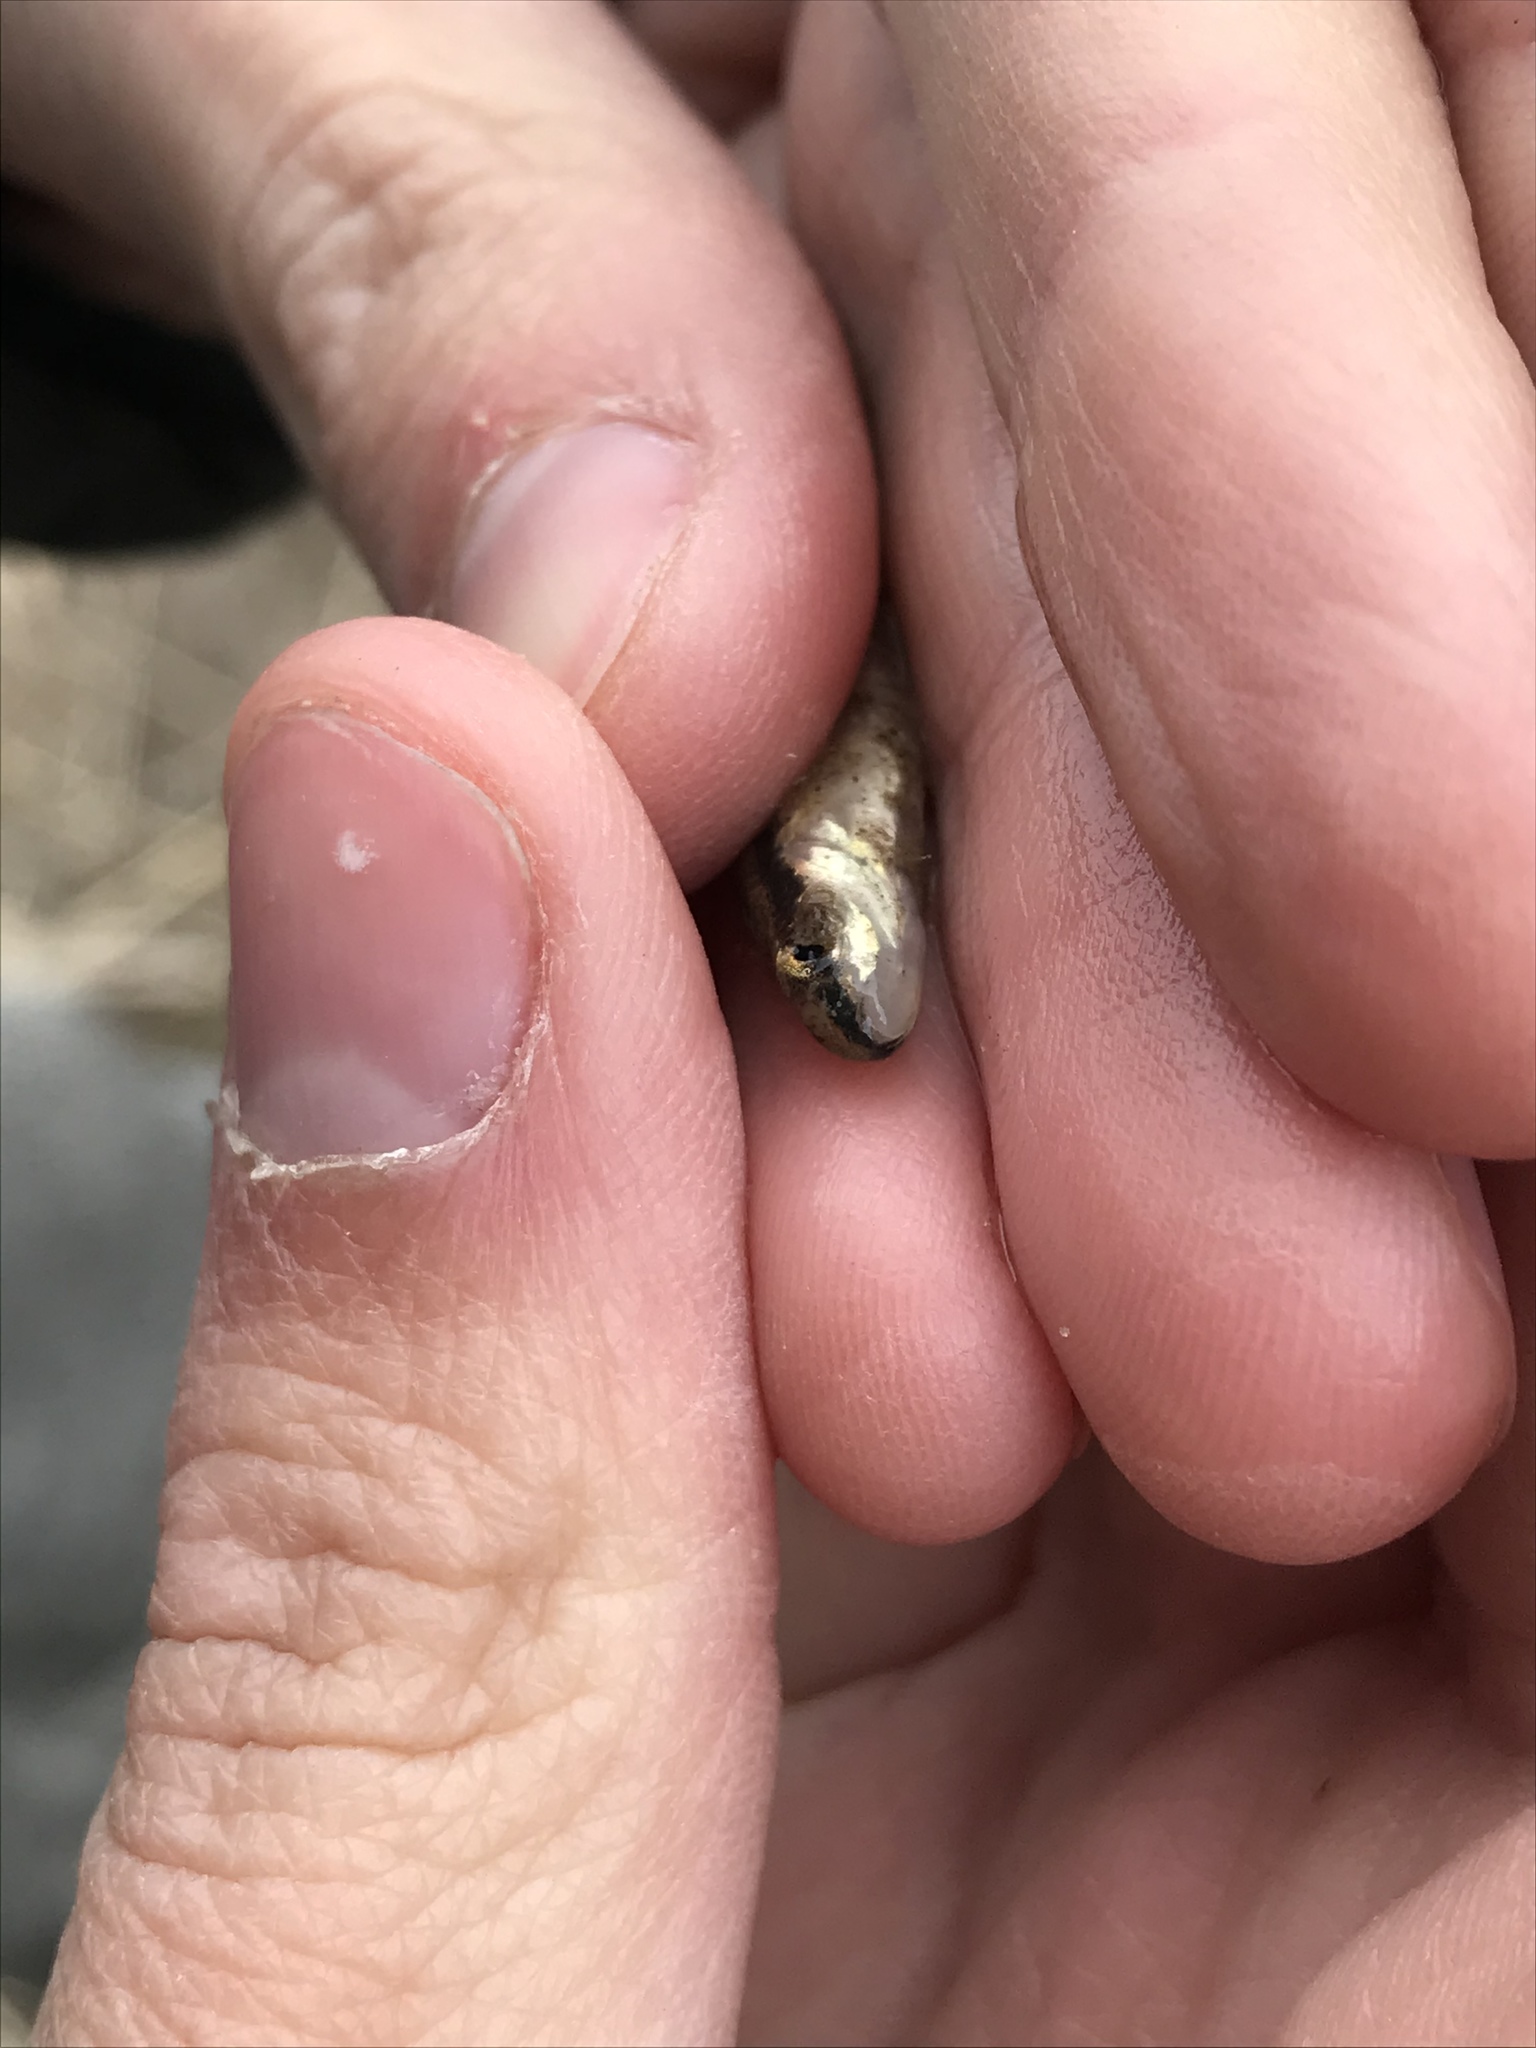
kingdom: Animalia
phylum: Chordata
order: Cypriniformes
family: Cyprinidae
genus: Rhinichthys
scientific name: Rhinichthys obtusus
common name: Western blacknose dace
